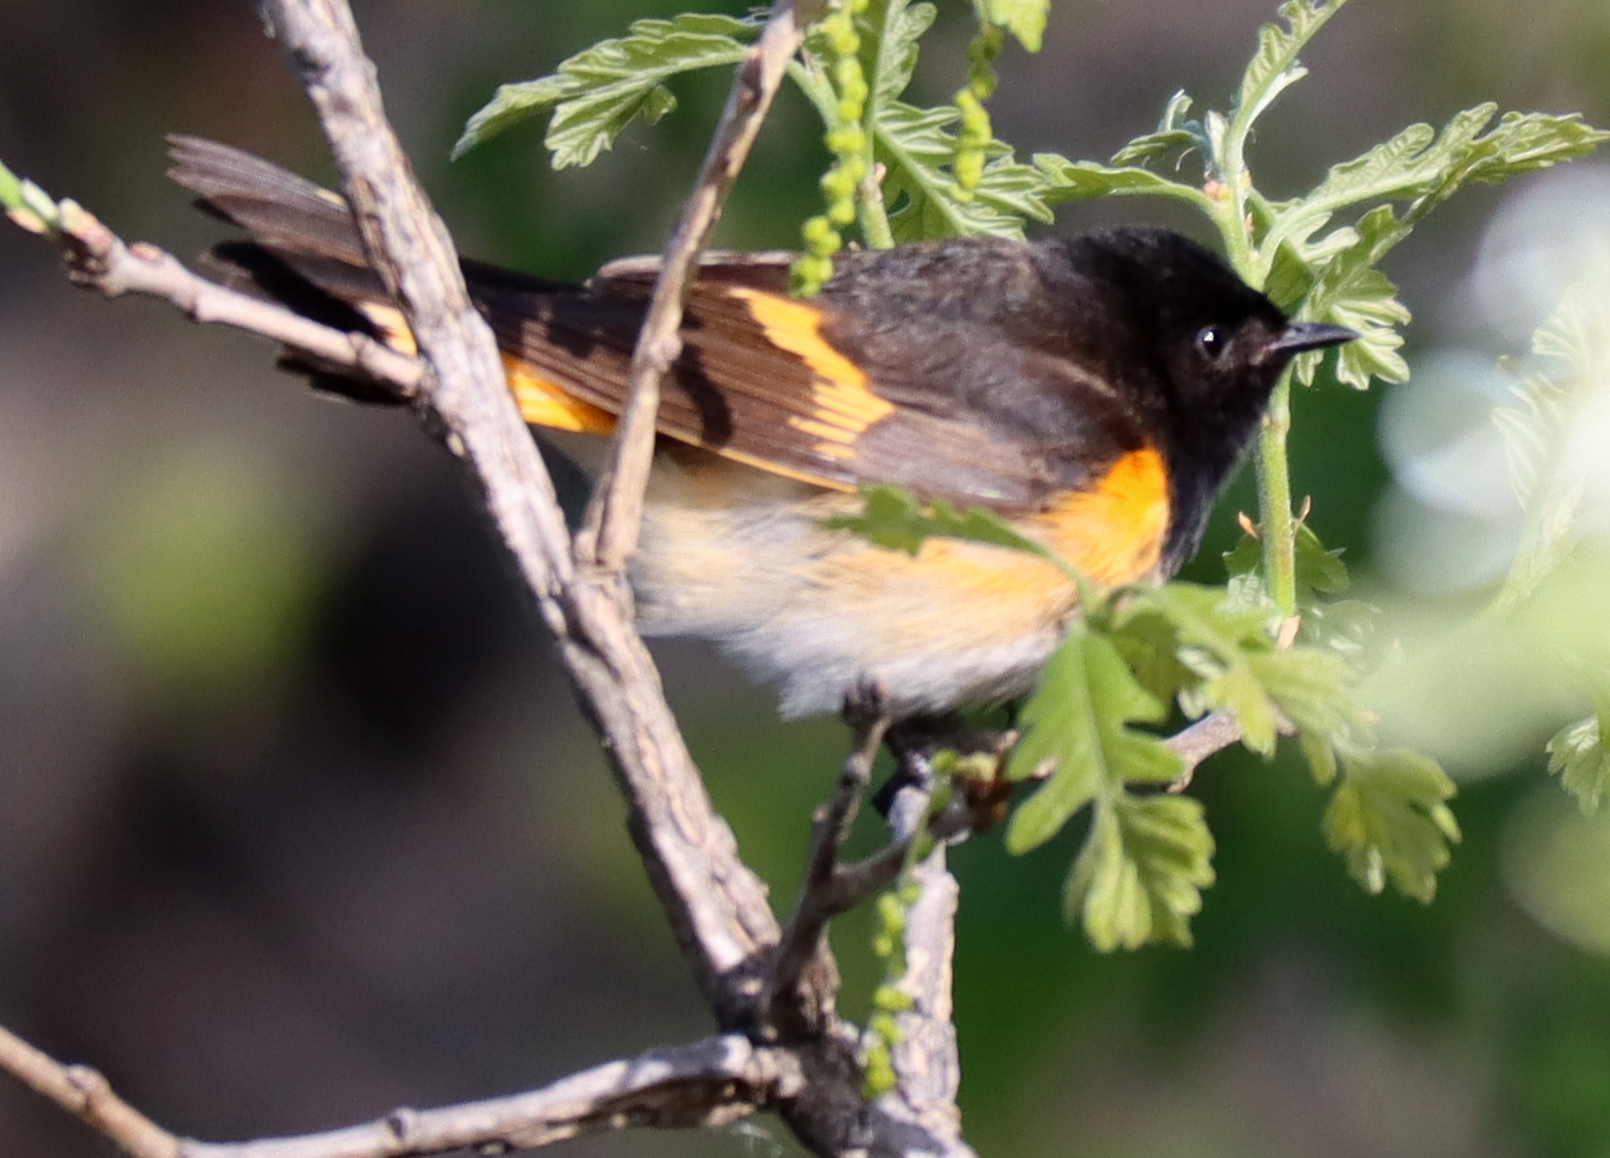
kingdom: Animalia
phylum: Chordata
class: Aves
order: Passeriformes
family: Parulidae
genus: Setophaga
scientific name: Setophaga ruticilla
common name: American redstart
